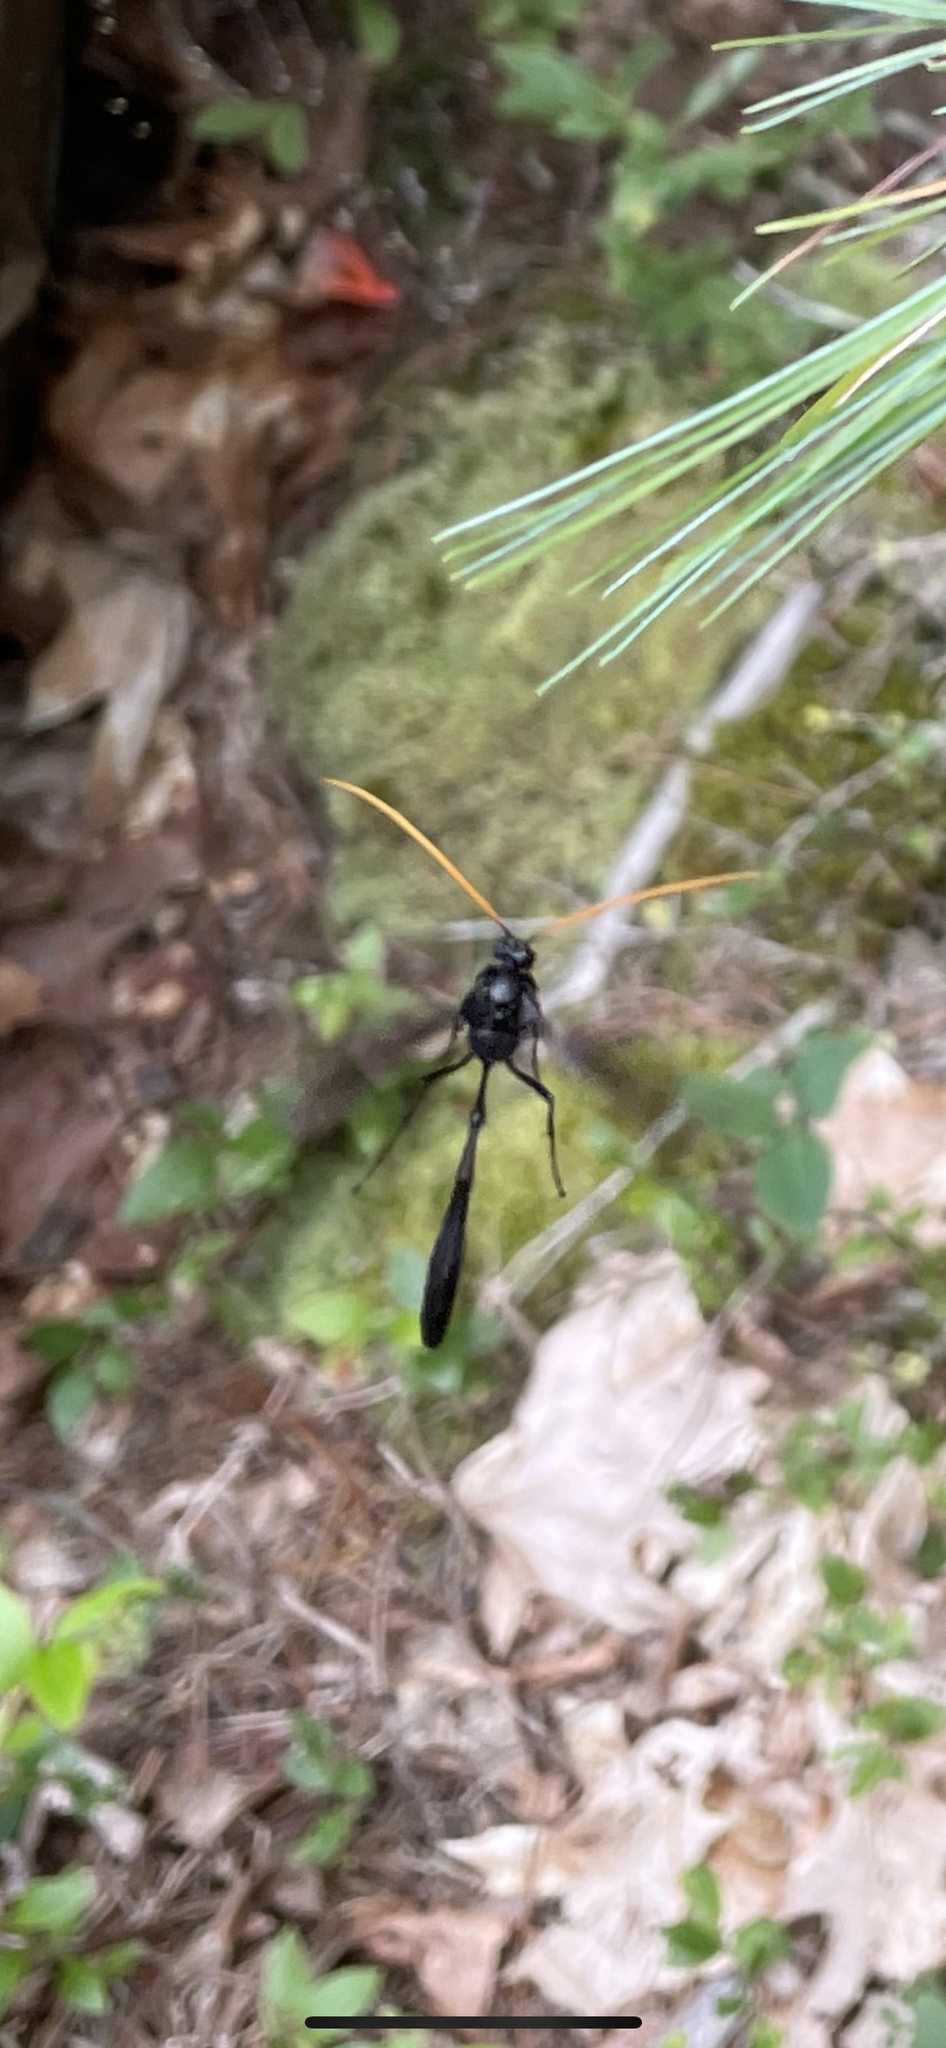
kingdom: Animalia
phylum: Arthropoda
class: Insecta
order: Hymenoptera
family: Ichneumonidae
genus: Thyreodon
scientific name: Thyreodon atricolor
